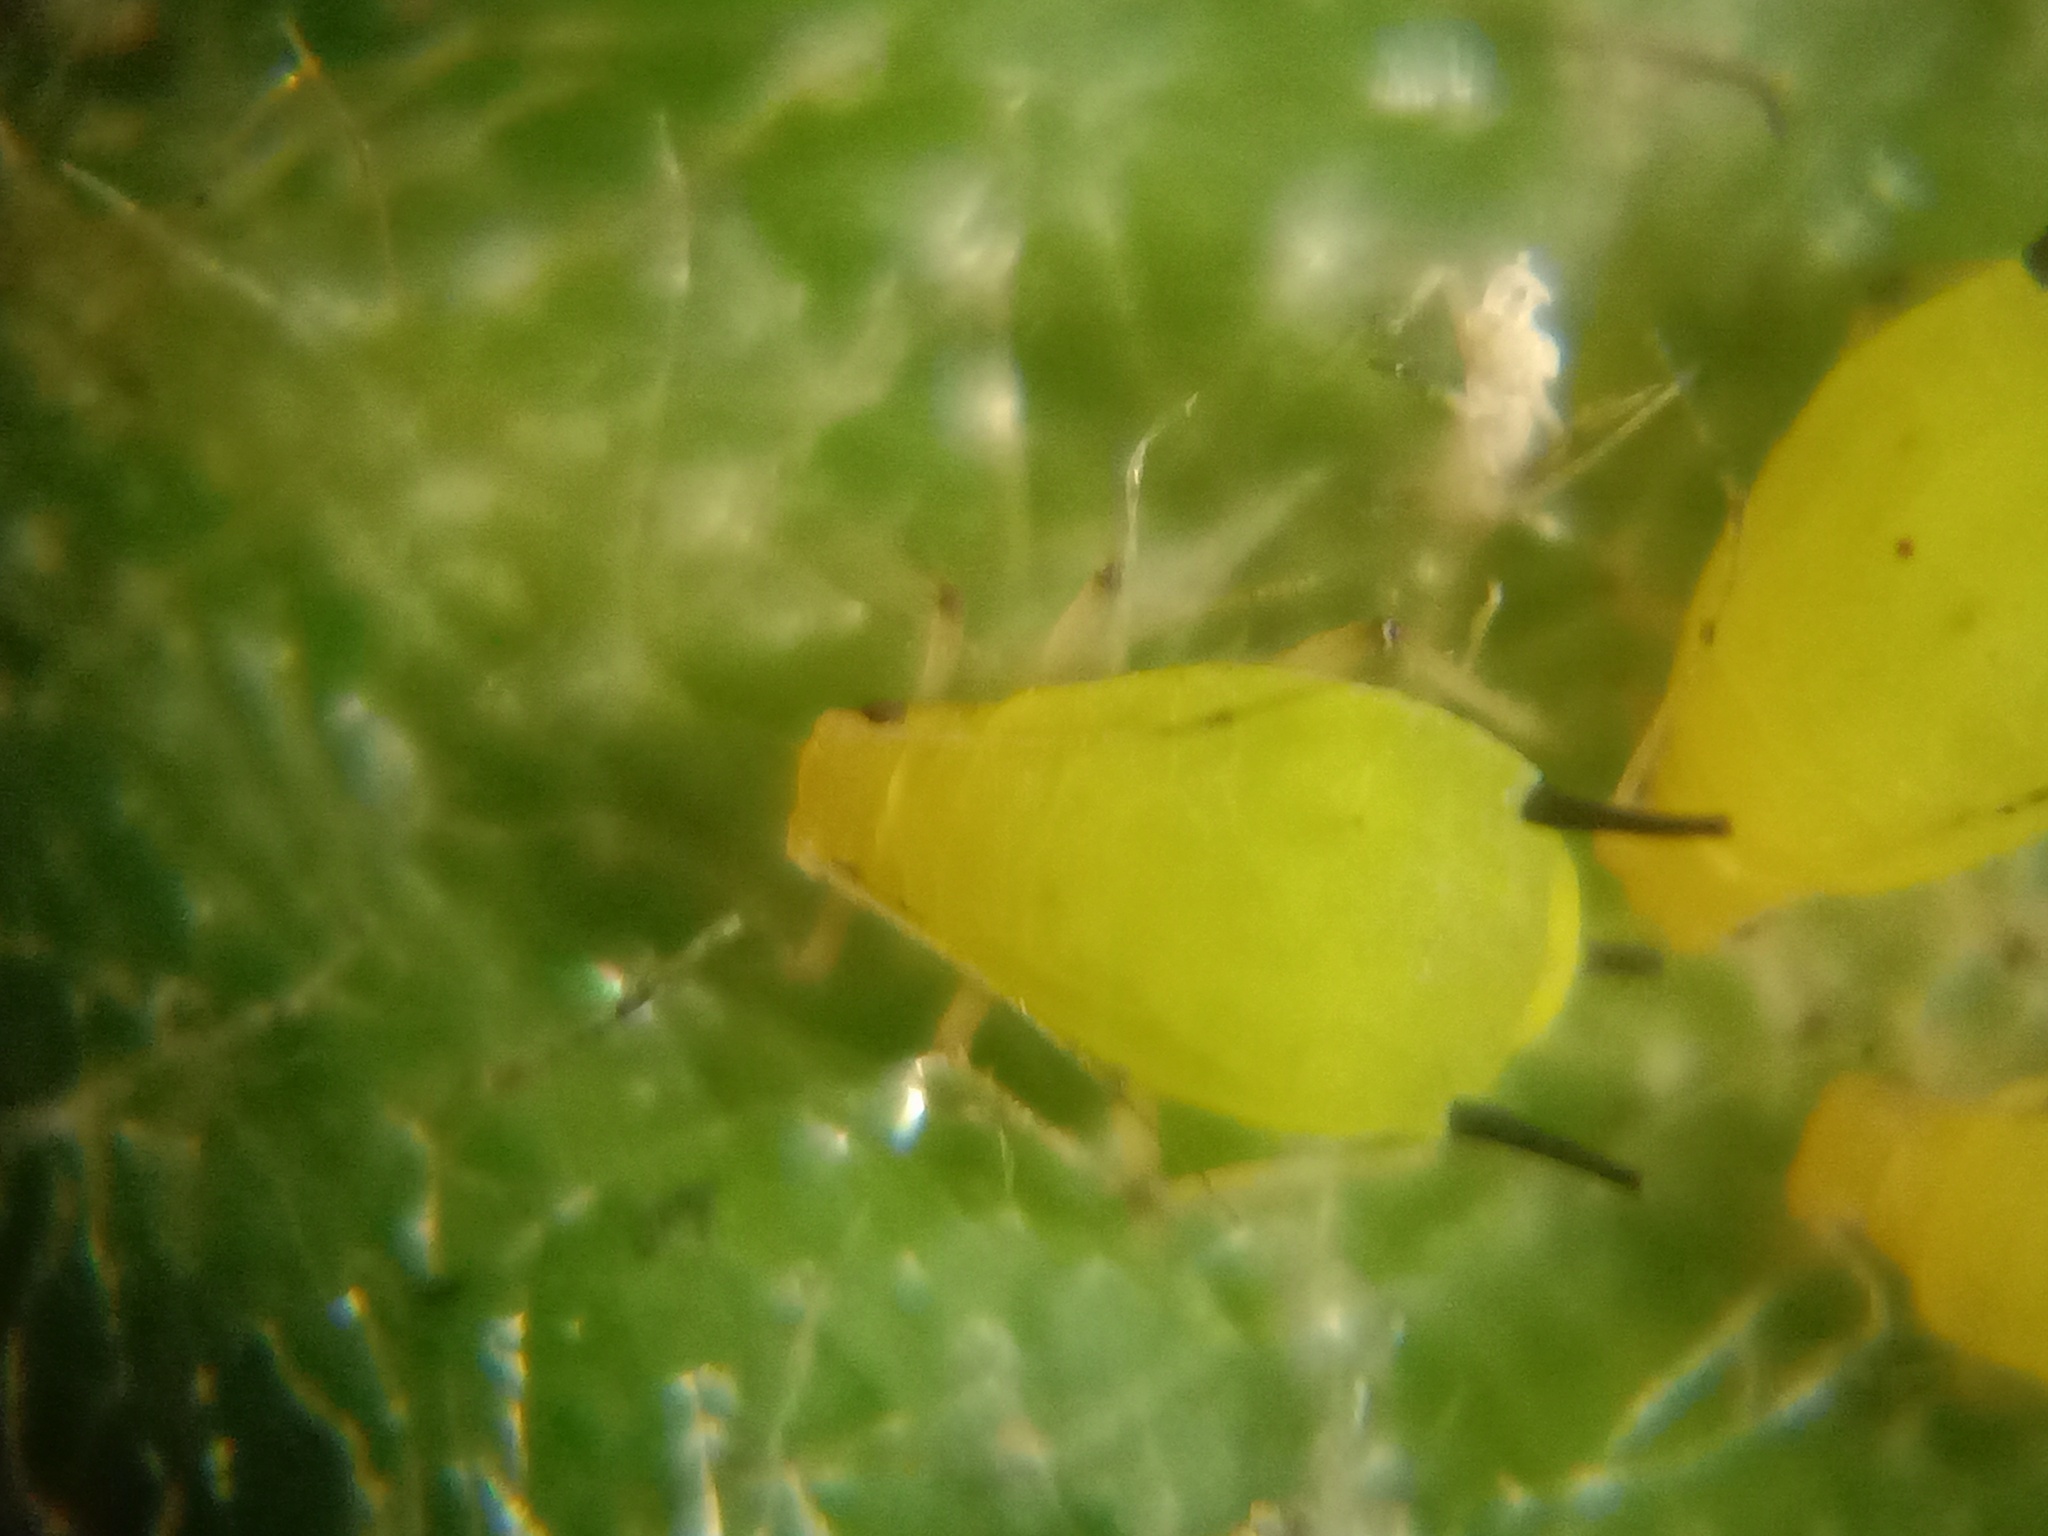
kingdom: Animalia
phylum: Arthropoda
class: Insecta
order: Hemiptera
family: Aphididae
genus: Aphis
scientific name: Aphis spiraecola
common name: Spirea aphid
